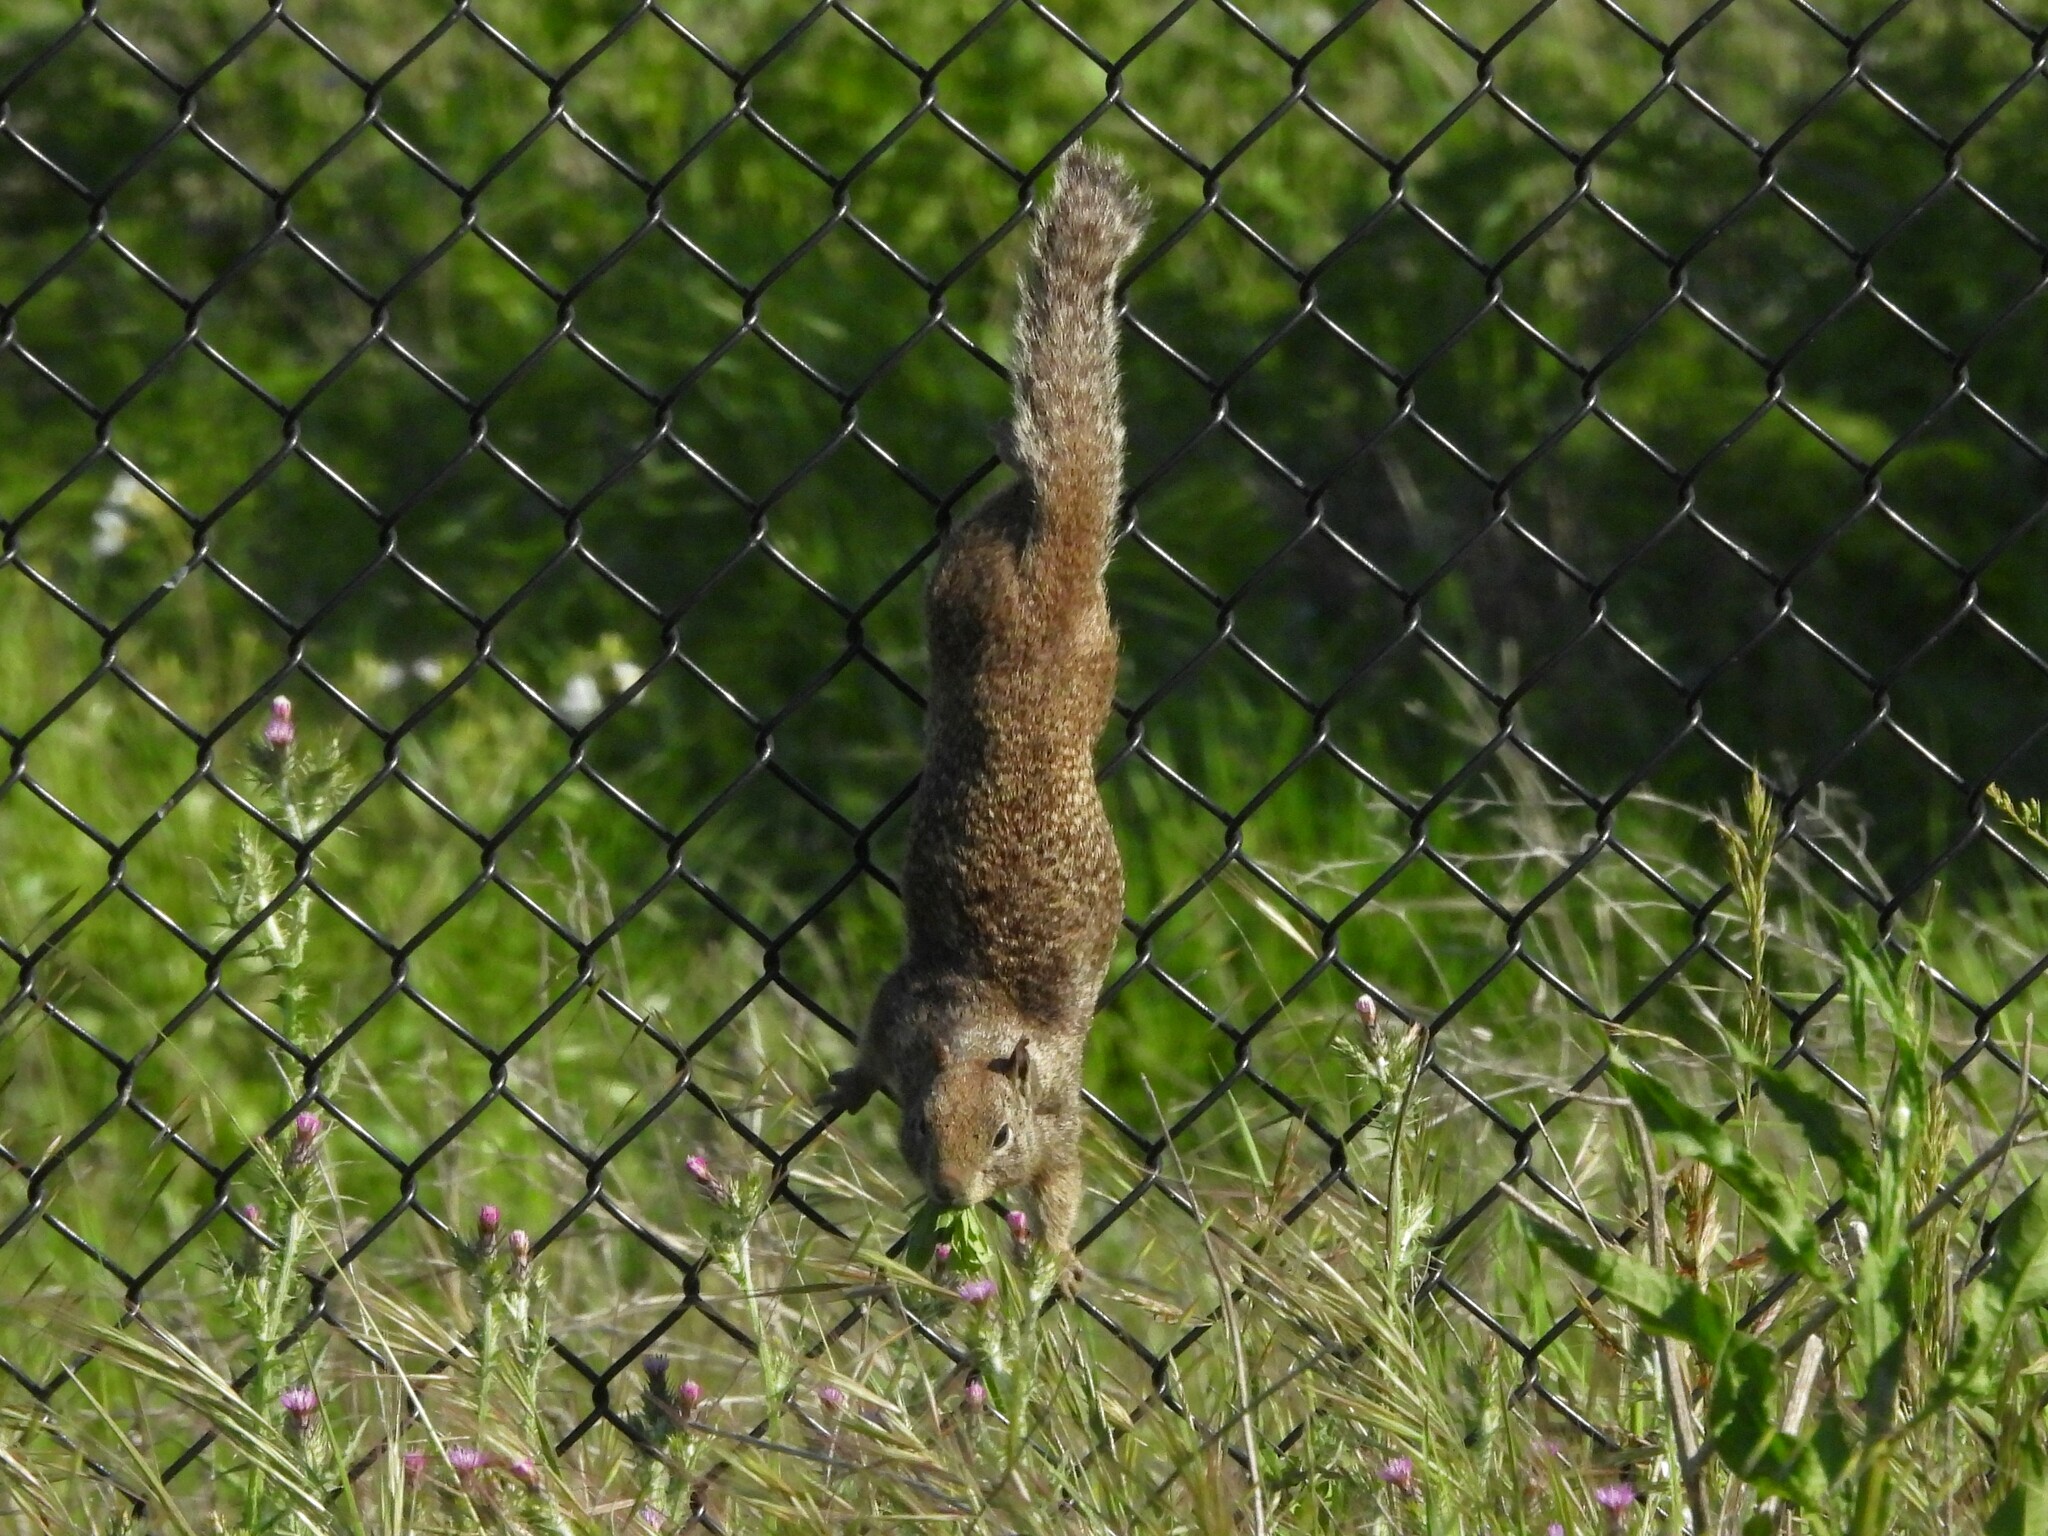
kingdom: Animalia
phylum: Chordata
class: Mammalia
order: Rodentia
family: Sciuridae
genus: Otospermophilus
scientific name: Otospermophilus beecheyi
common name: California ground squirrel
